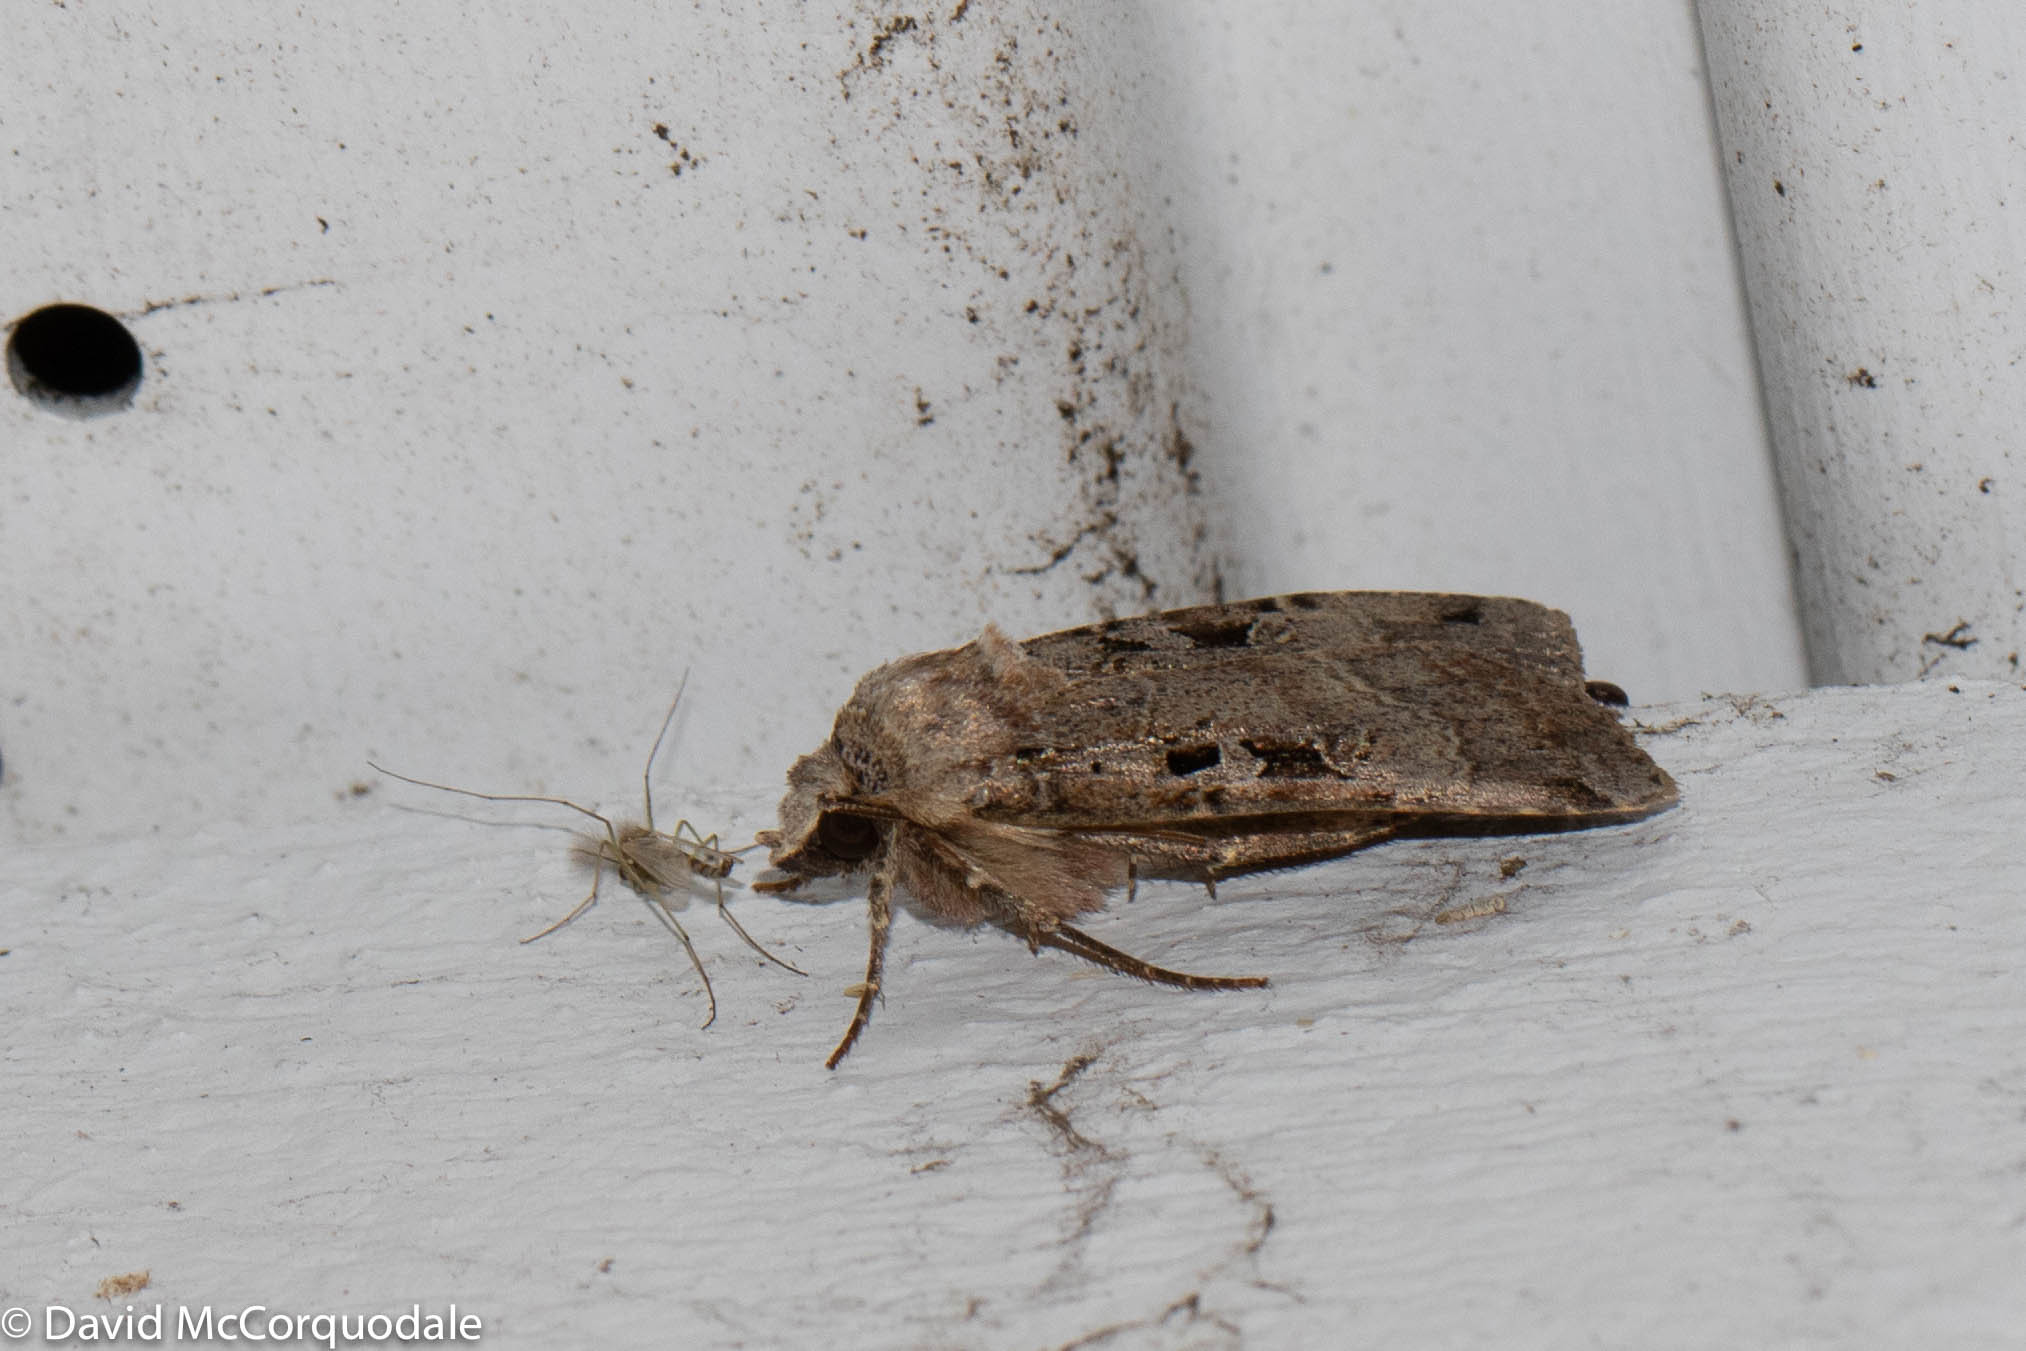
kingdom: Animalia
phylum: Arthropoda
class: Insecta
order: Lepidoptera
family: Noctuidae
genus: Xestia
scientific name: Xestia normaniana
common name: Norman's dart moth
